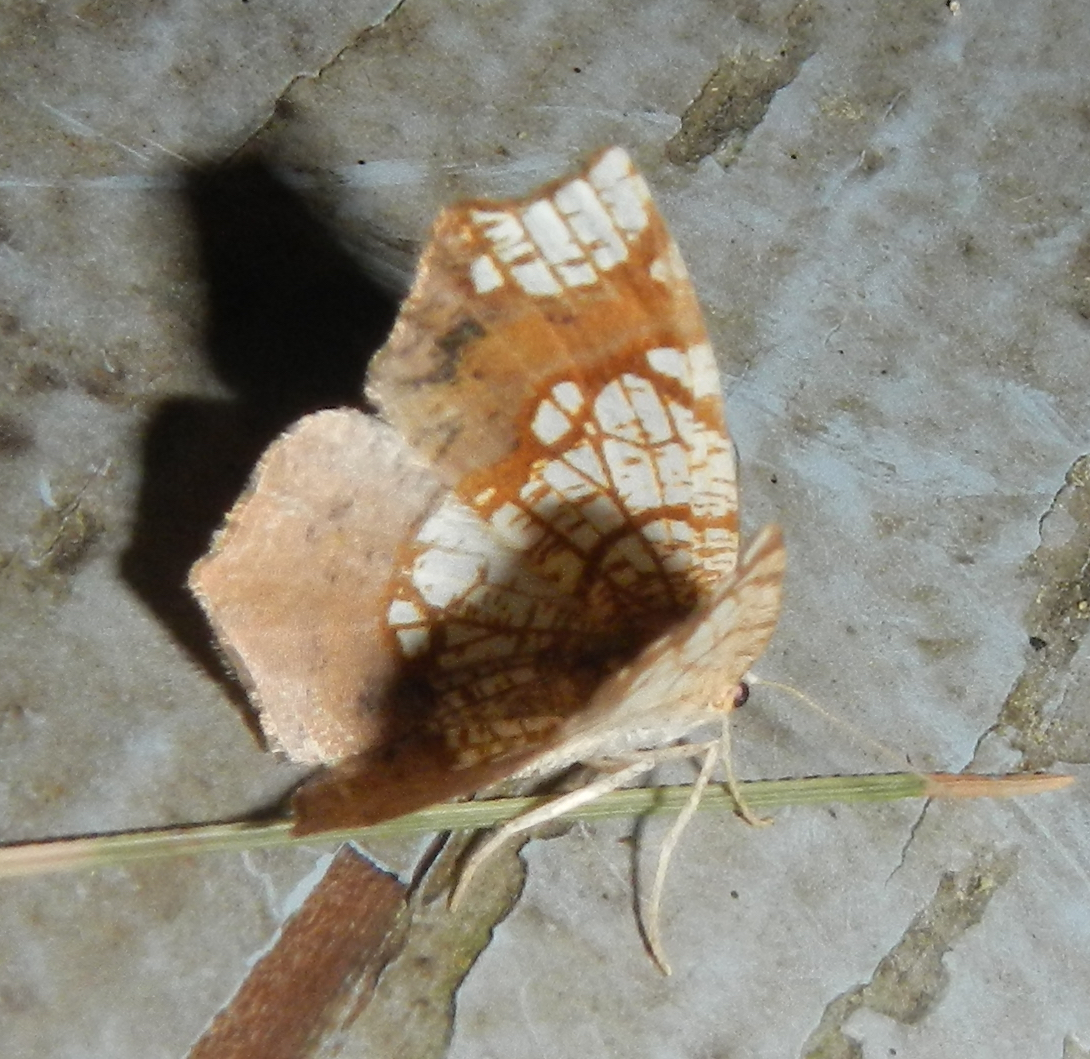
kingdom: Animalia
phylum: Arthropoda
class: Insecta
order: Lepidoptera
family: Geometridae
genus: Nematocampa
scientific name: Nematocampa resistaria
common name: Horned spanworm moth
